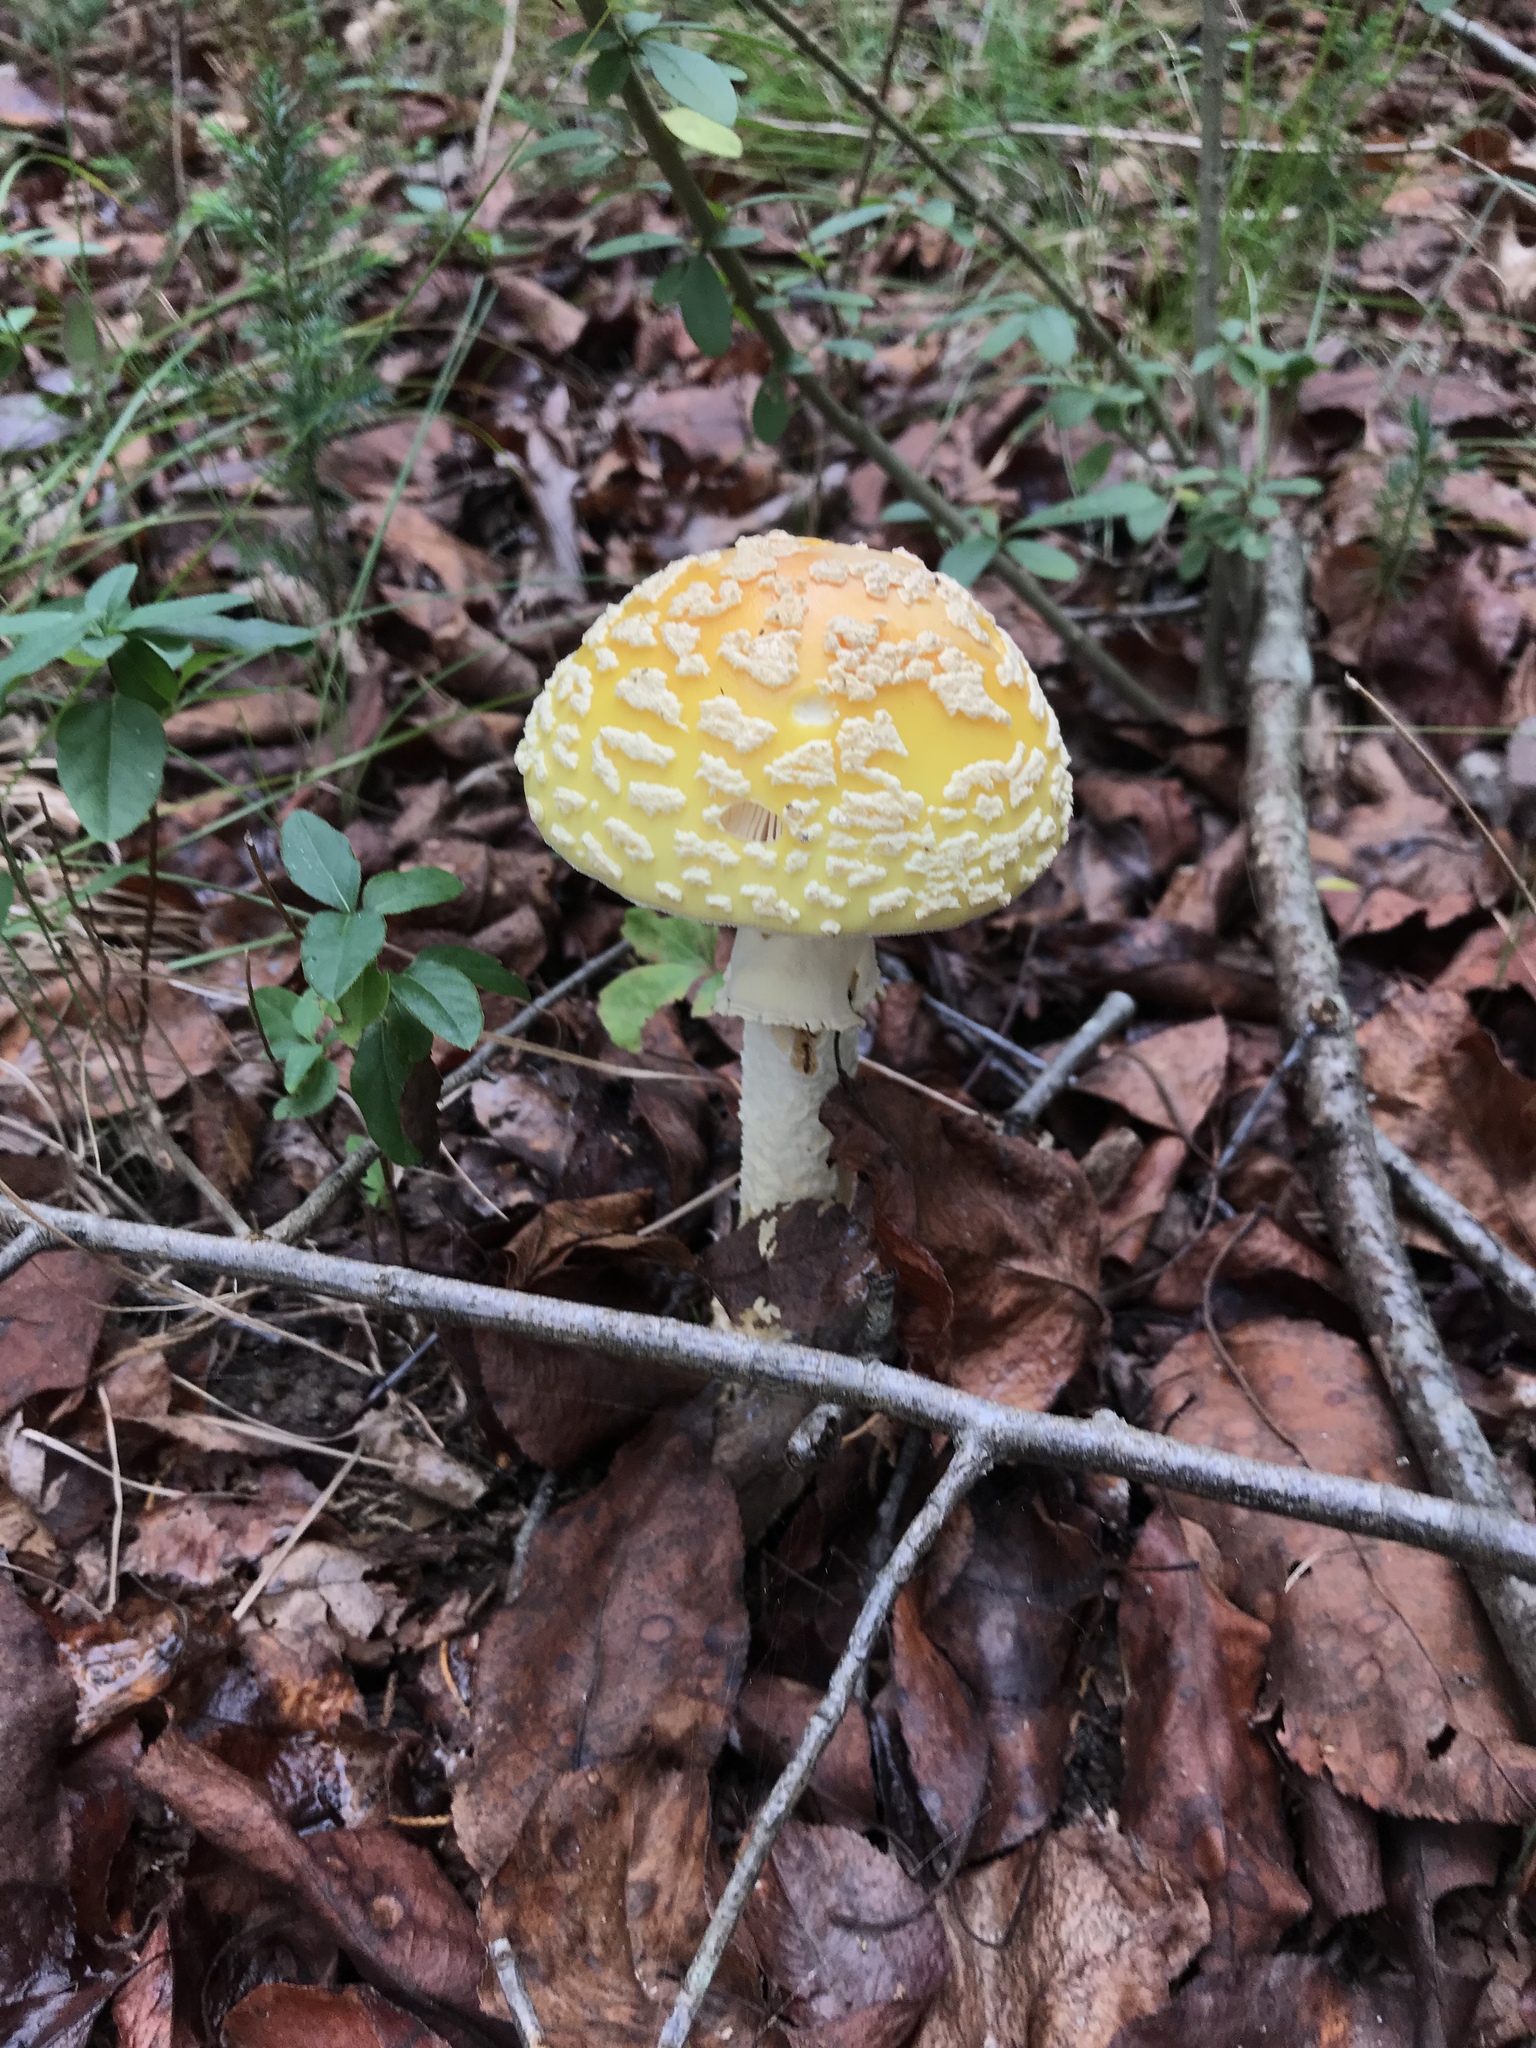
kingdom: Fungi
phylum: Basidiomycota
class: Agaricomycetes
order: Agaricales
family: Amanitaceae
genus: Amanita
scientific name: Amanita muscaria
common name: Fly agaric
